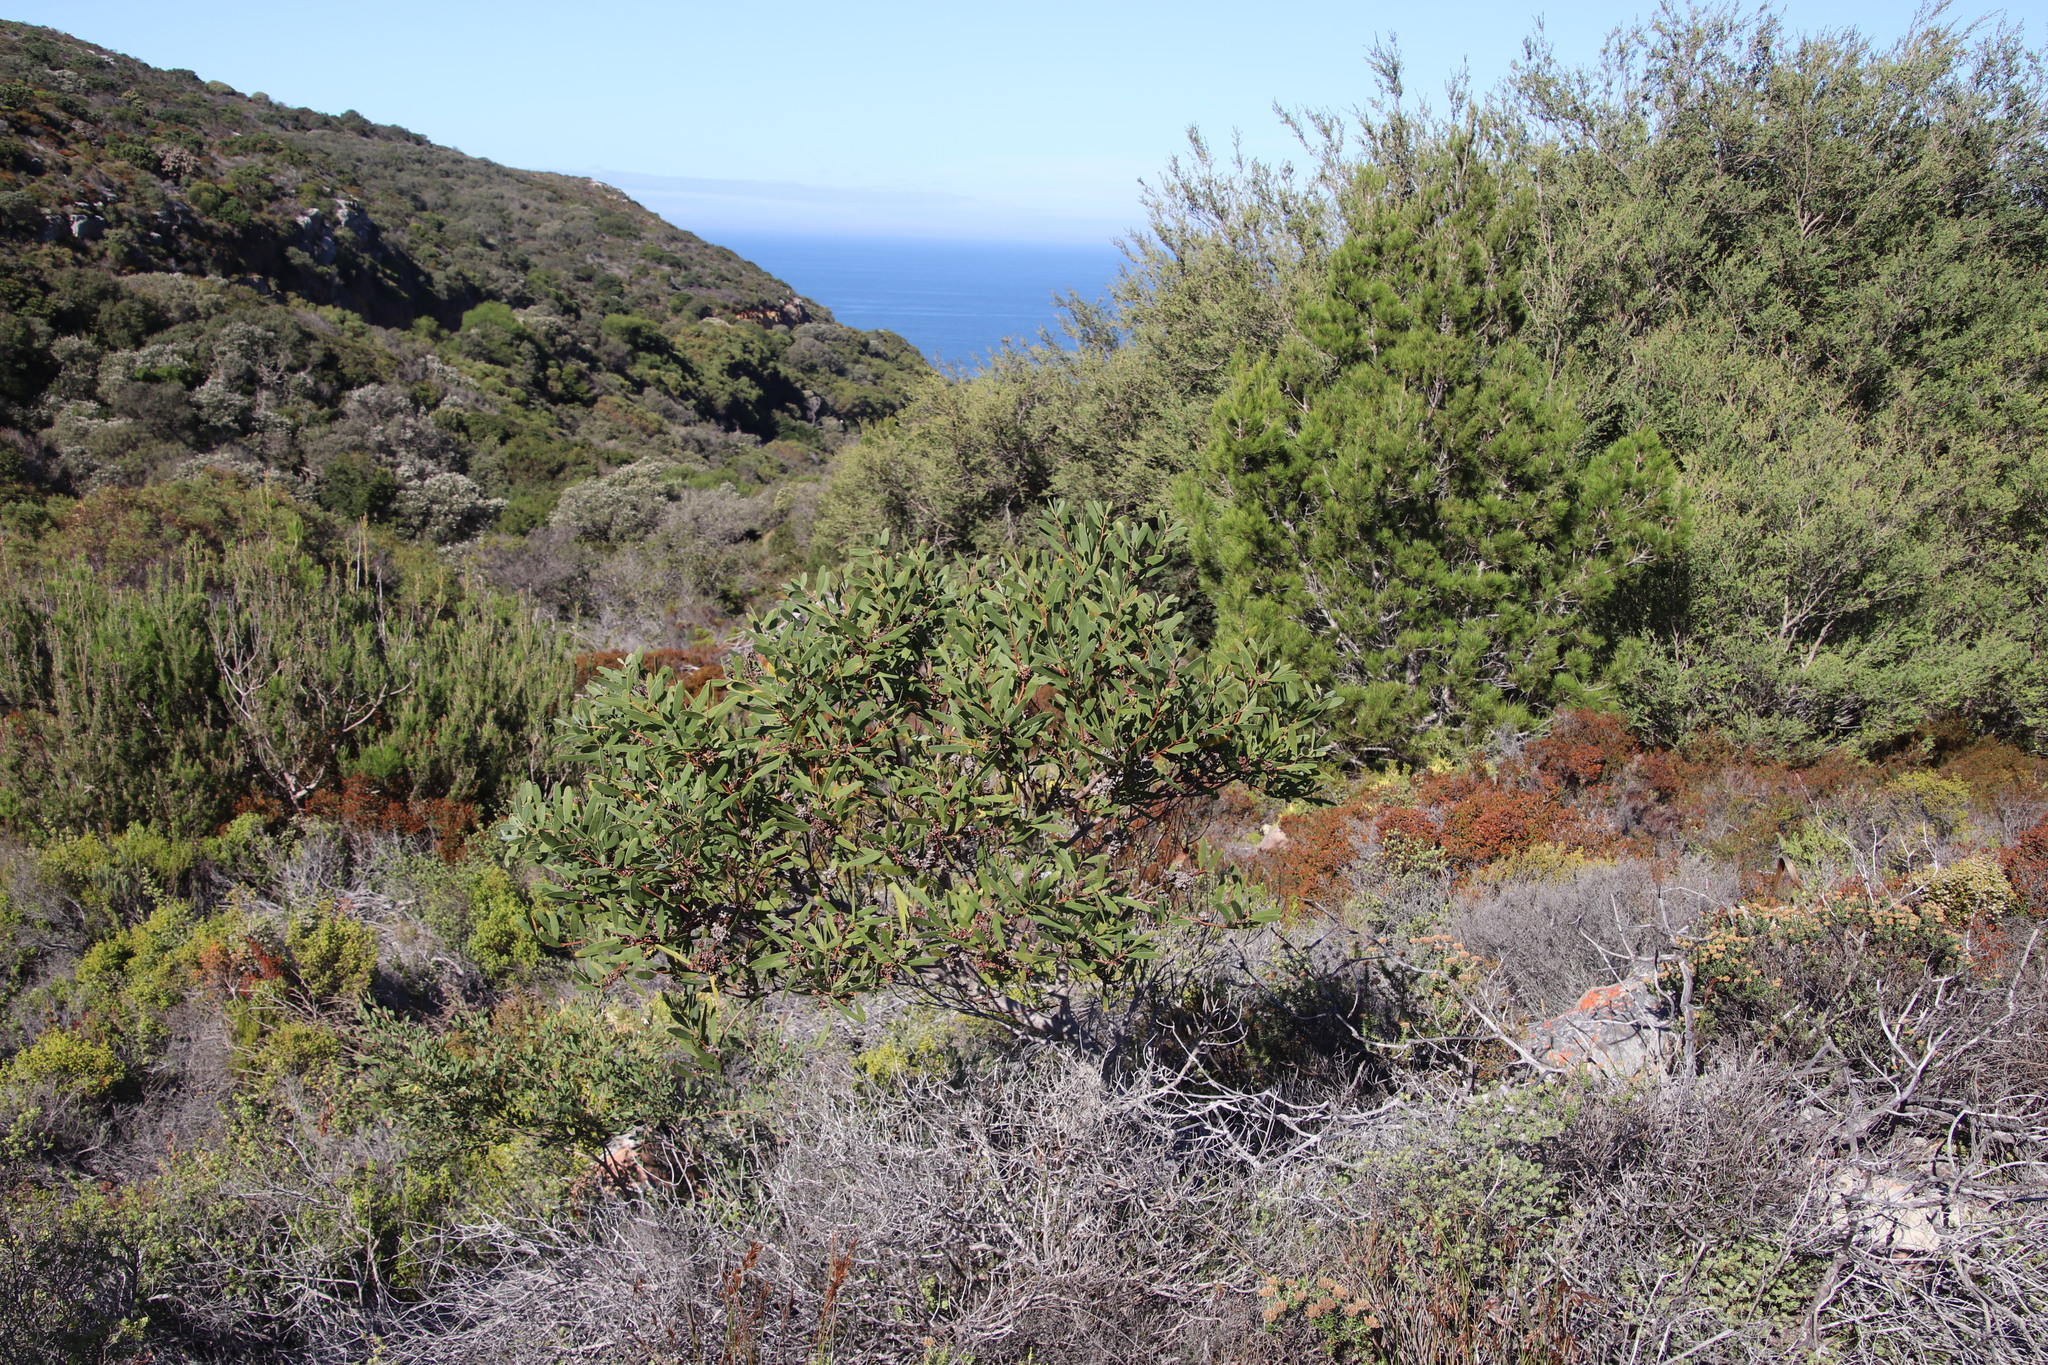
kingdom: Plantae
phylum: Tracheophyta
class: Magnoliopsida
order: Fabales
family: Fabaceae
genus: Acacia
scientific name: Acacia cyclops
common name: Coastal wattle
